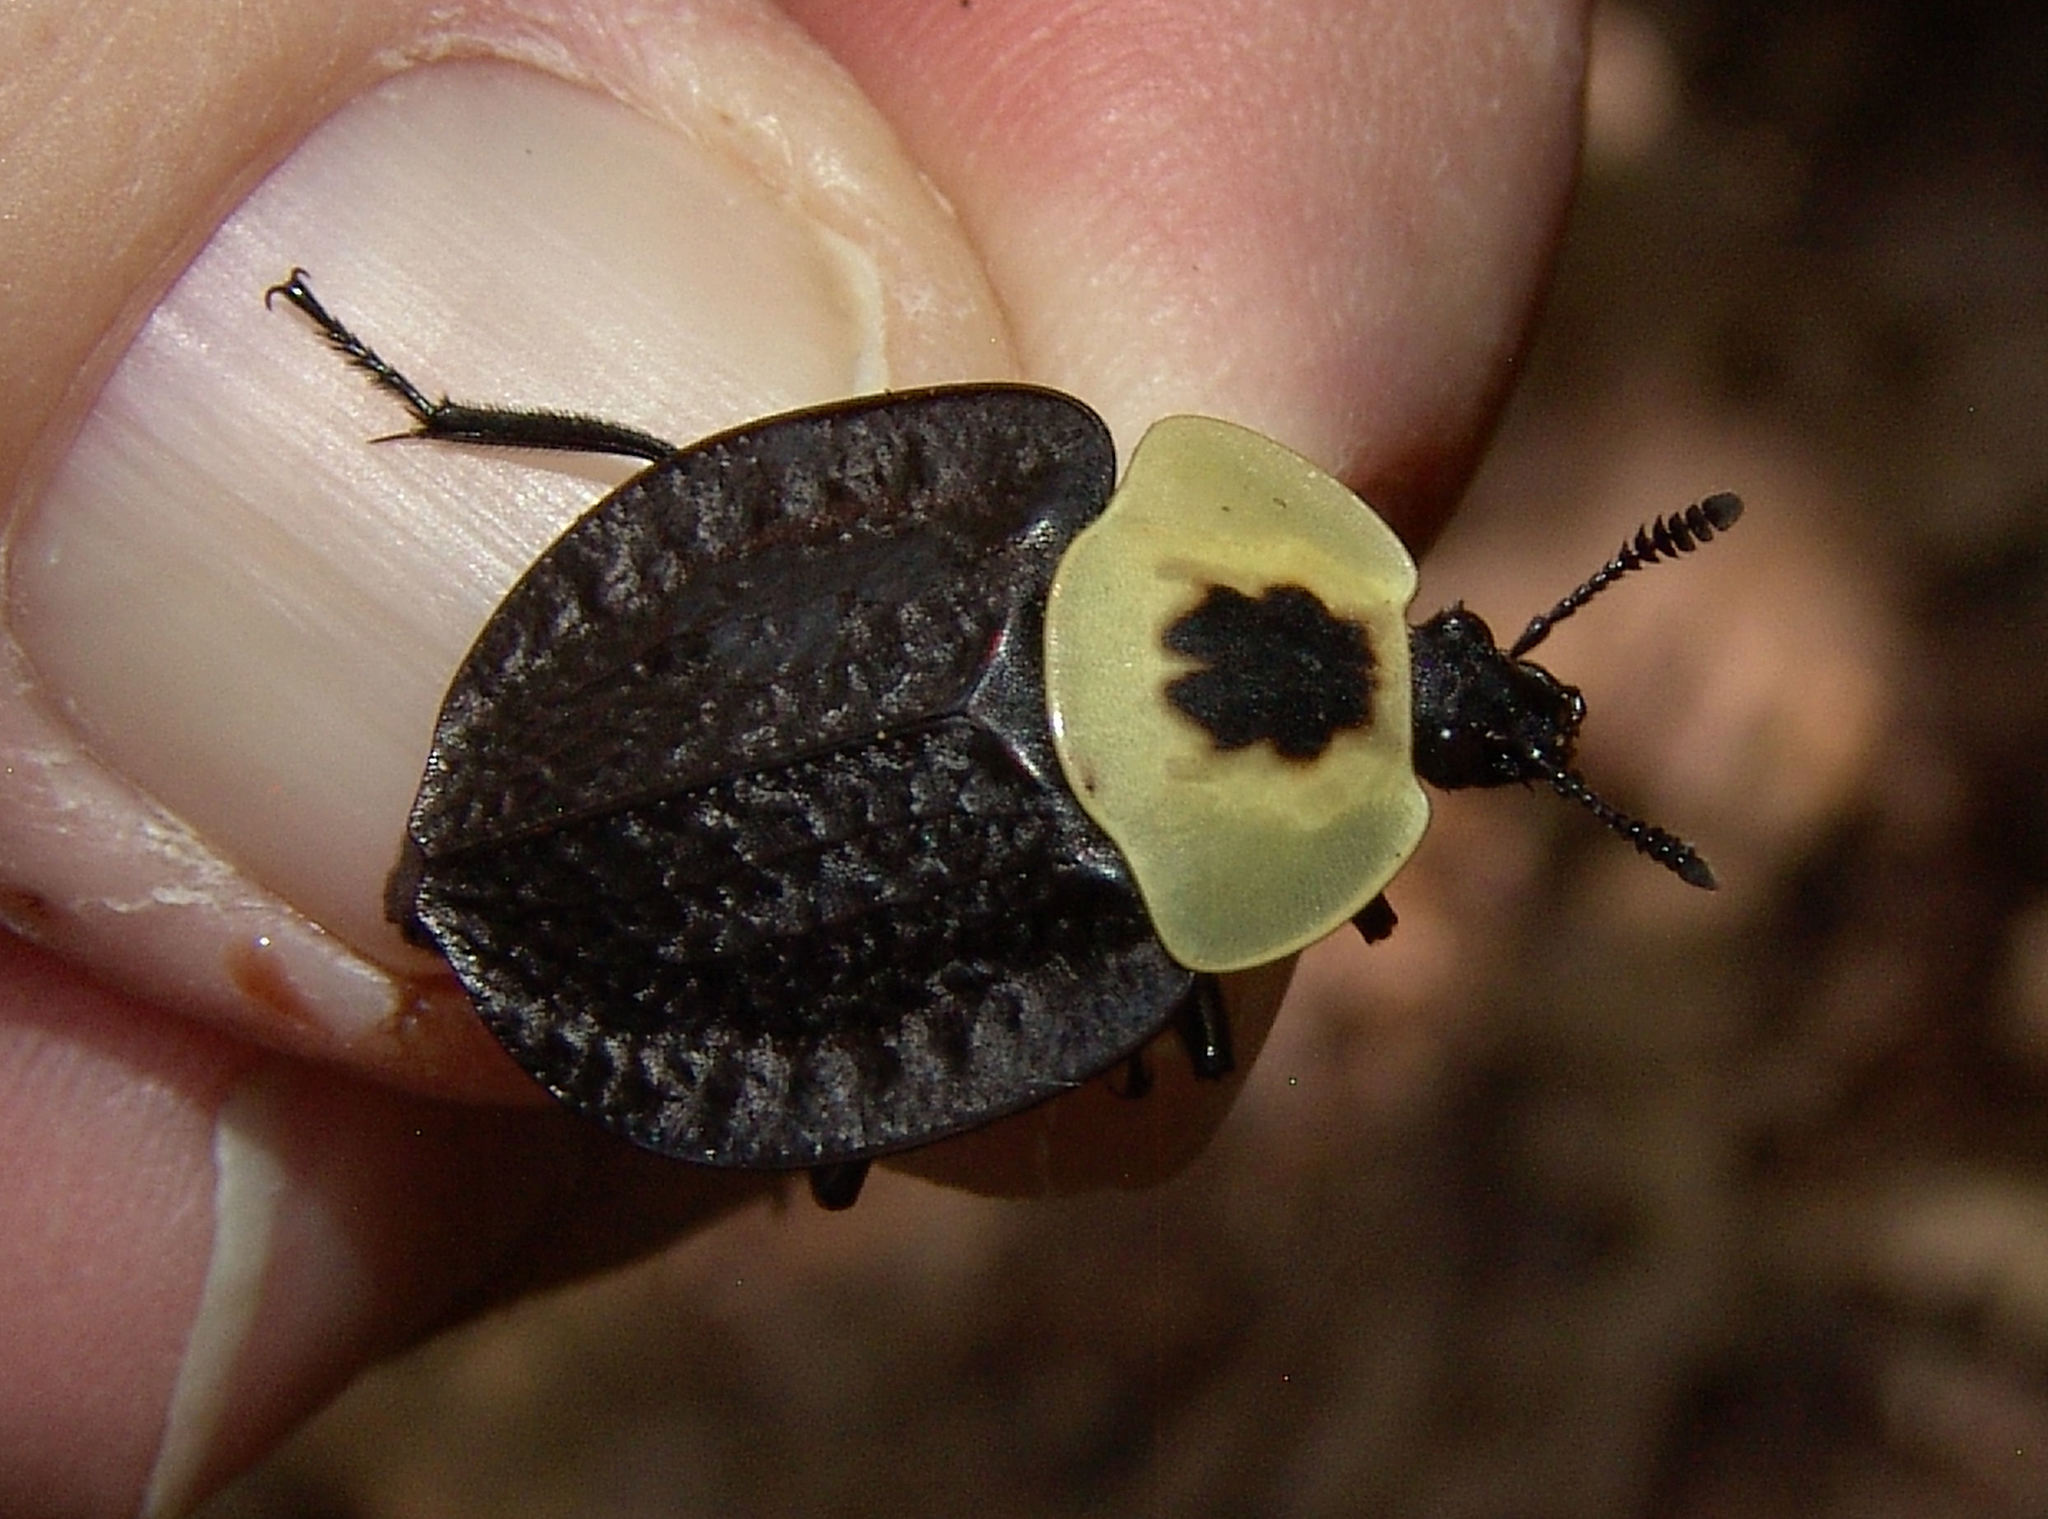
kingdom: Animalia
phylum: Arthropoda
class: Insecta
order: Coleoptera
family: Staphylinidae
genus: Necrophila
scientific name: Necrophila americana
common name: American carrion beetle
